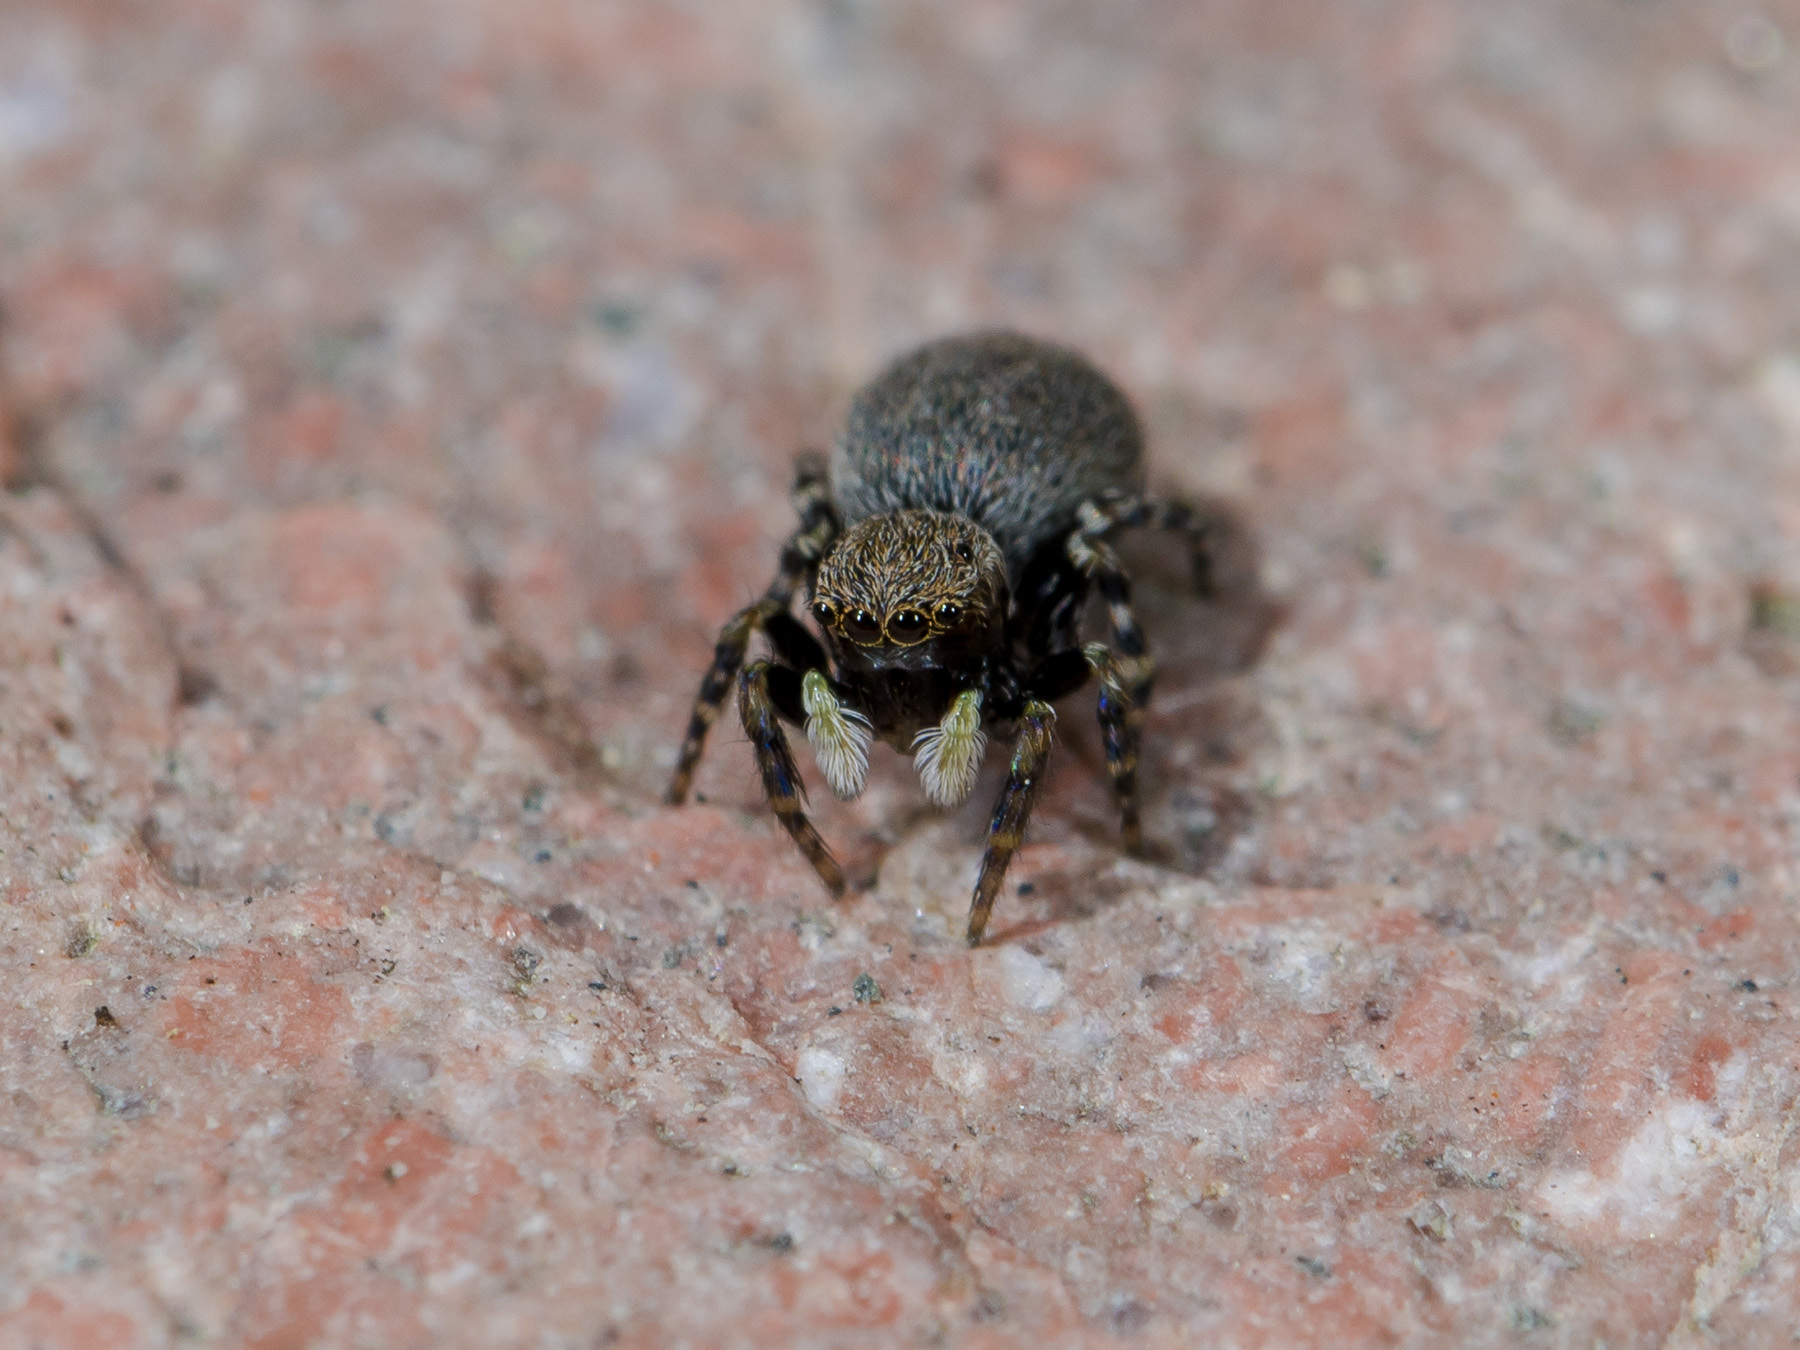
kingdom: Animalia
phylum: Arthropoda
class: Arachnida
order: Araneae
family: Salticidae
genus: Talavera
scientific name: Talavera petrensis
